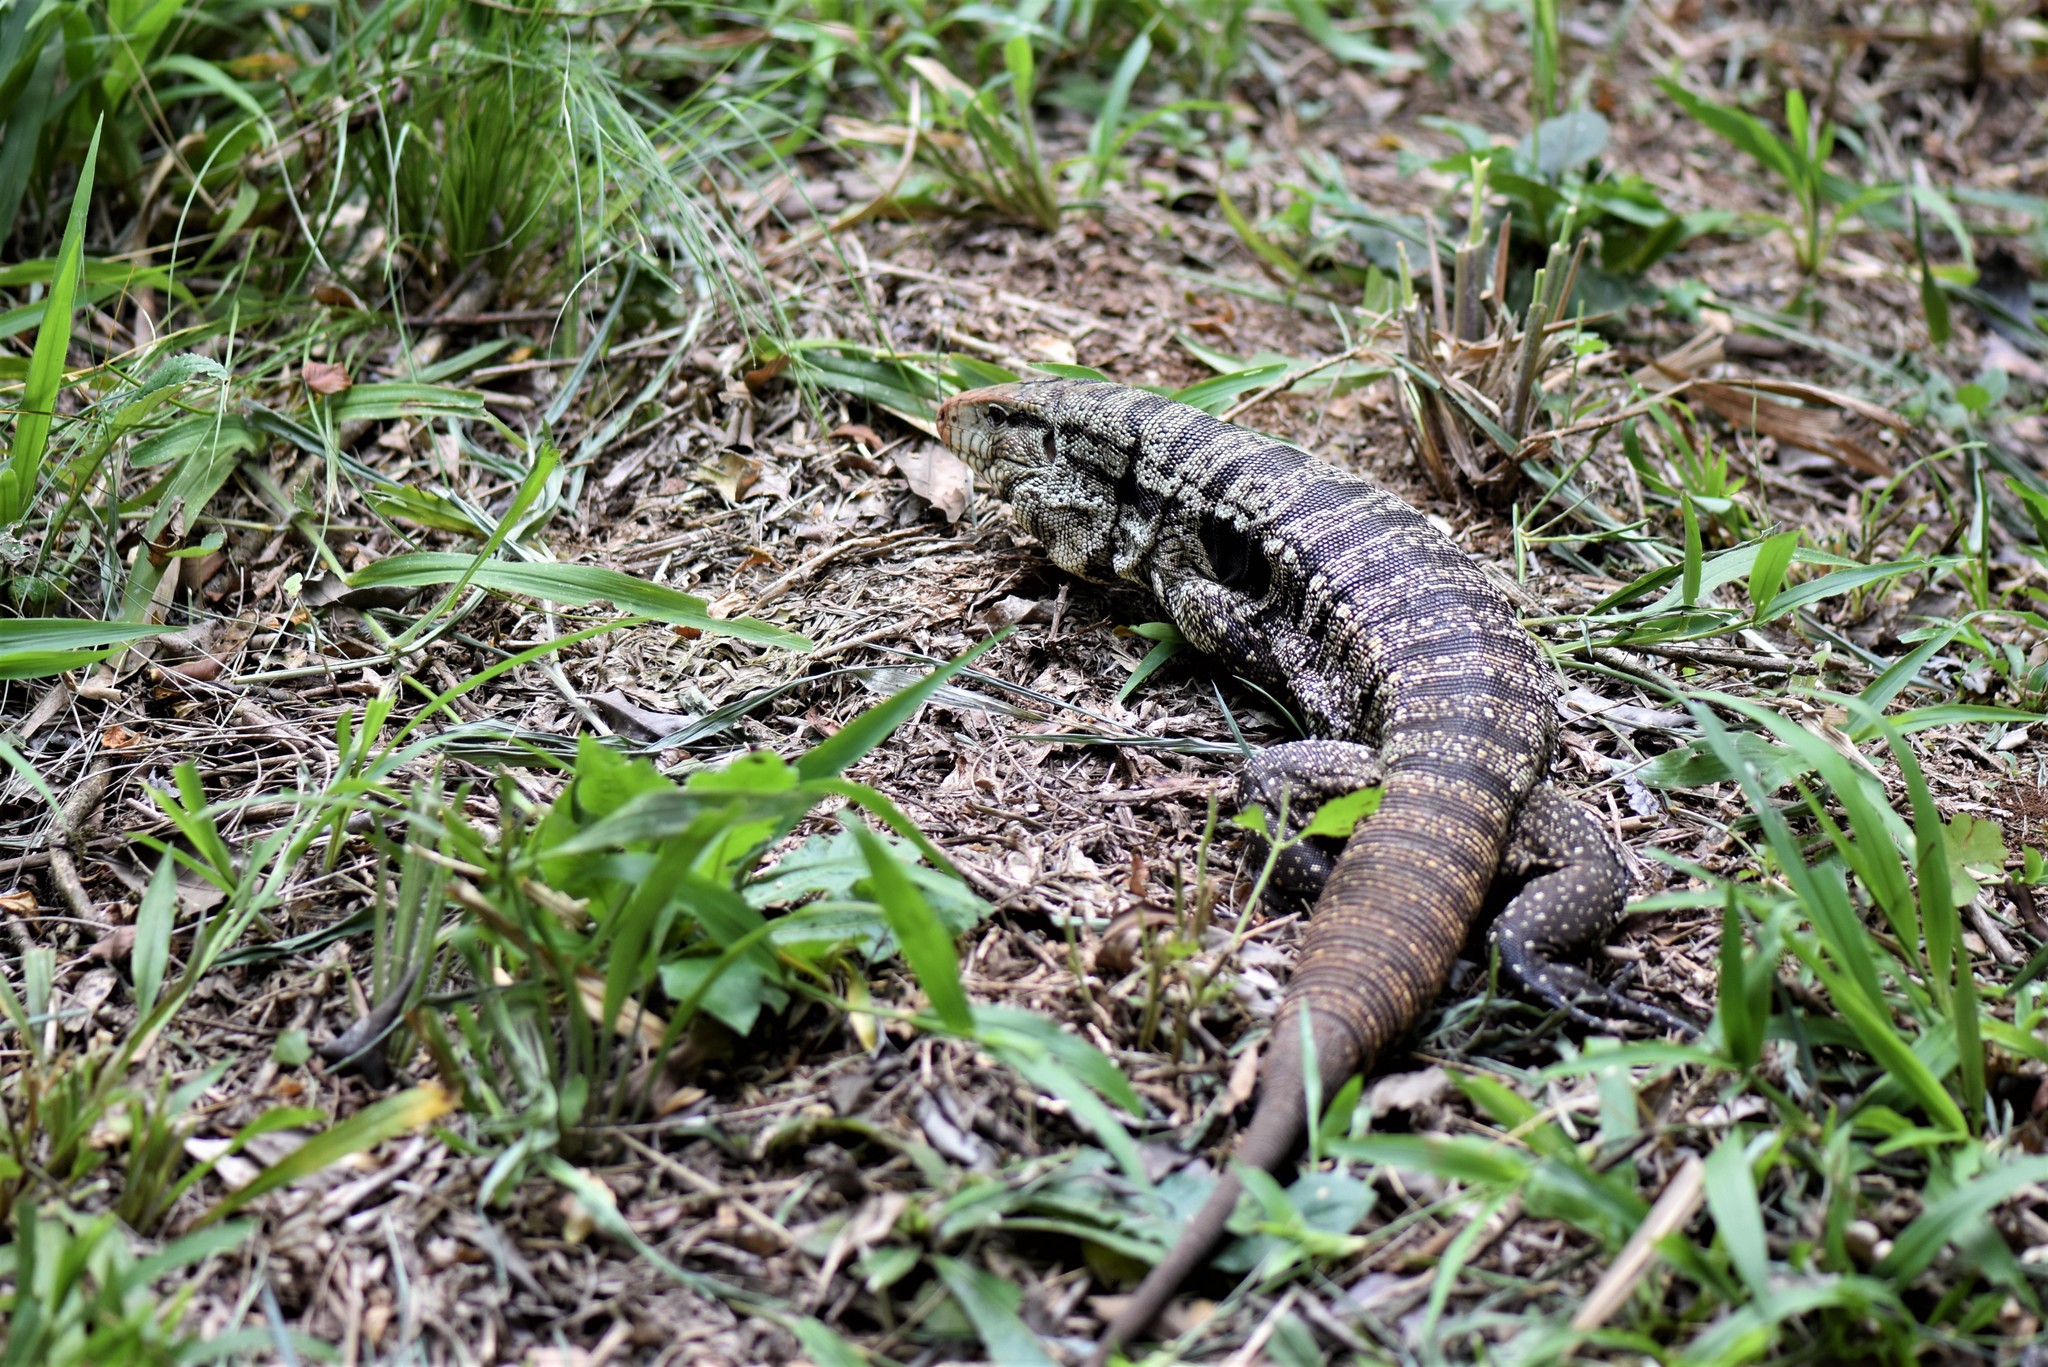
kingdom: Animalia
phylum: Chordata
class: Squamata
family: Teiidae
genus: Salvator
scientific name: Salvator merianae
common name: Argentine black and white tegu
